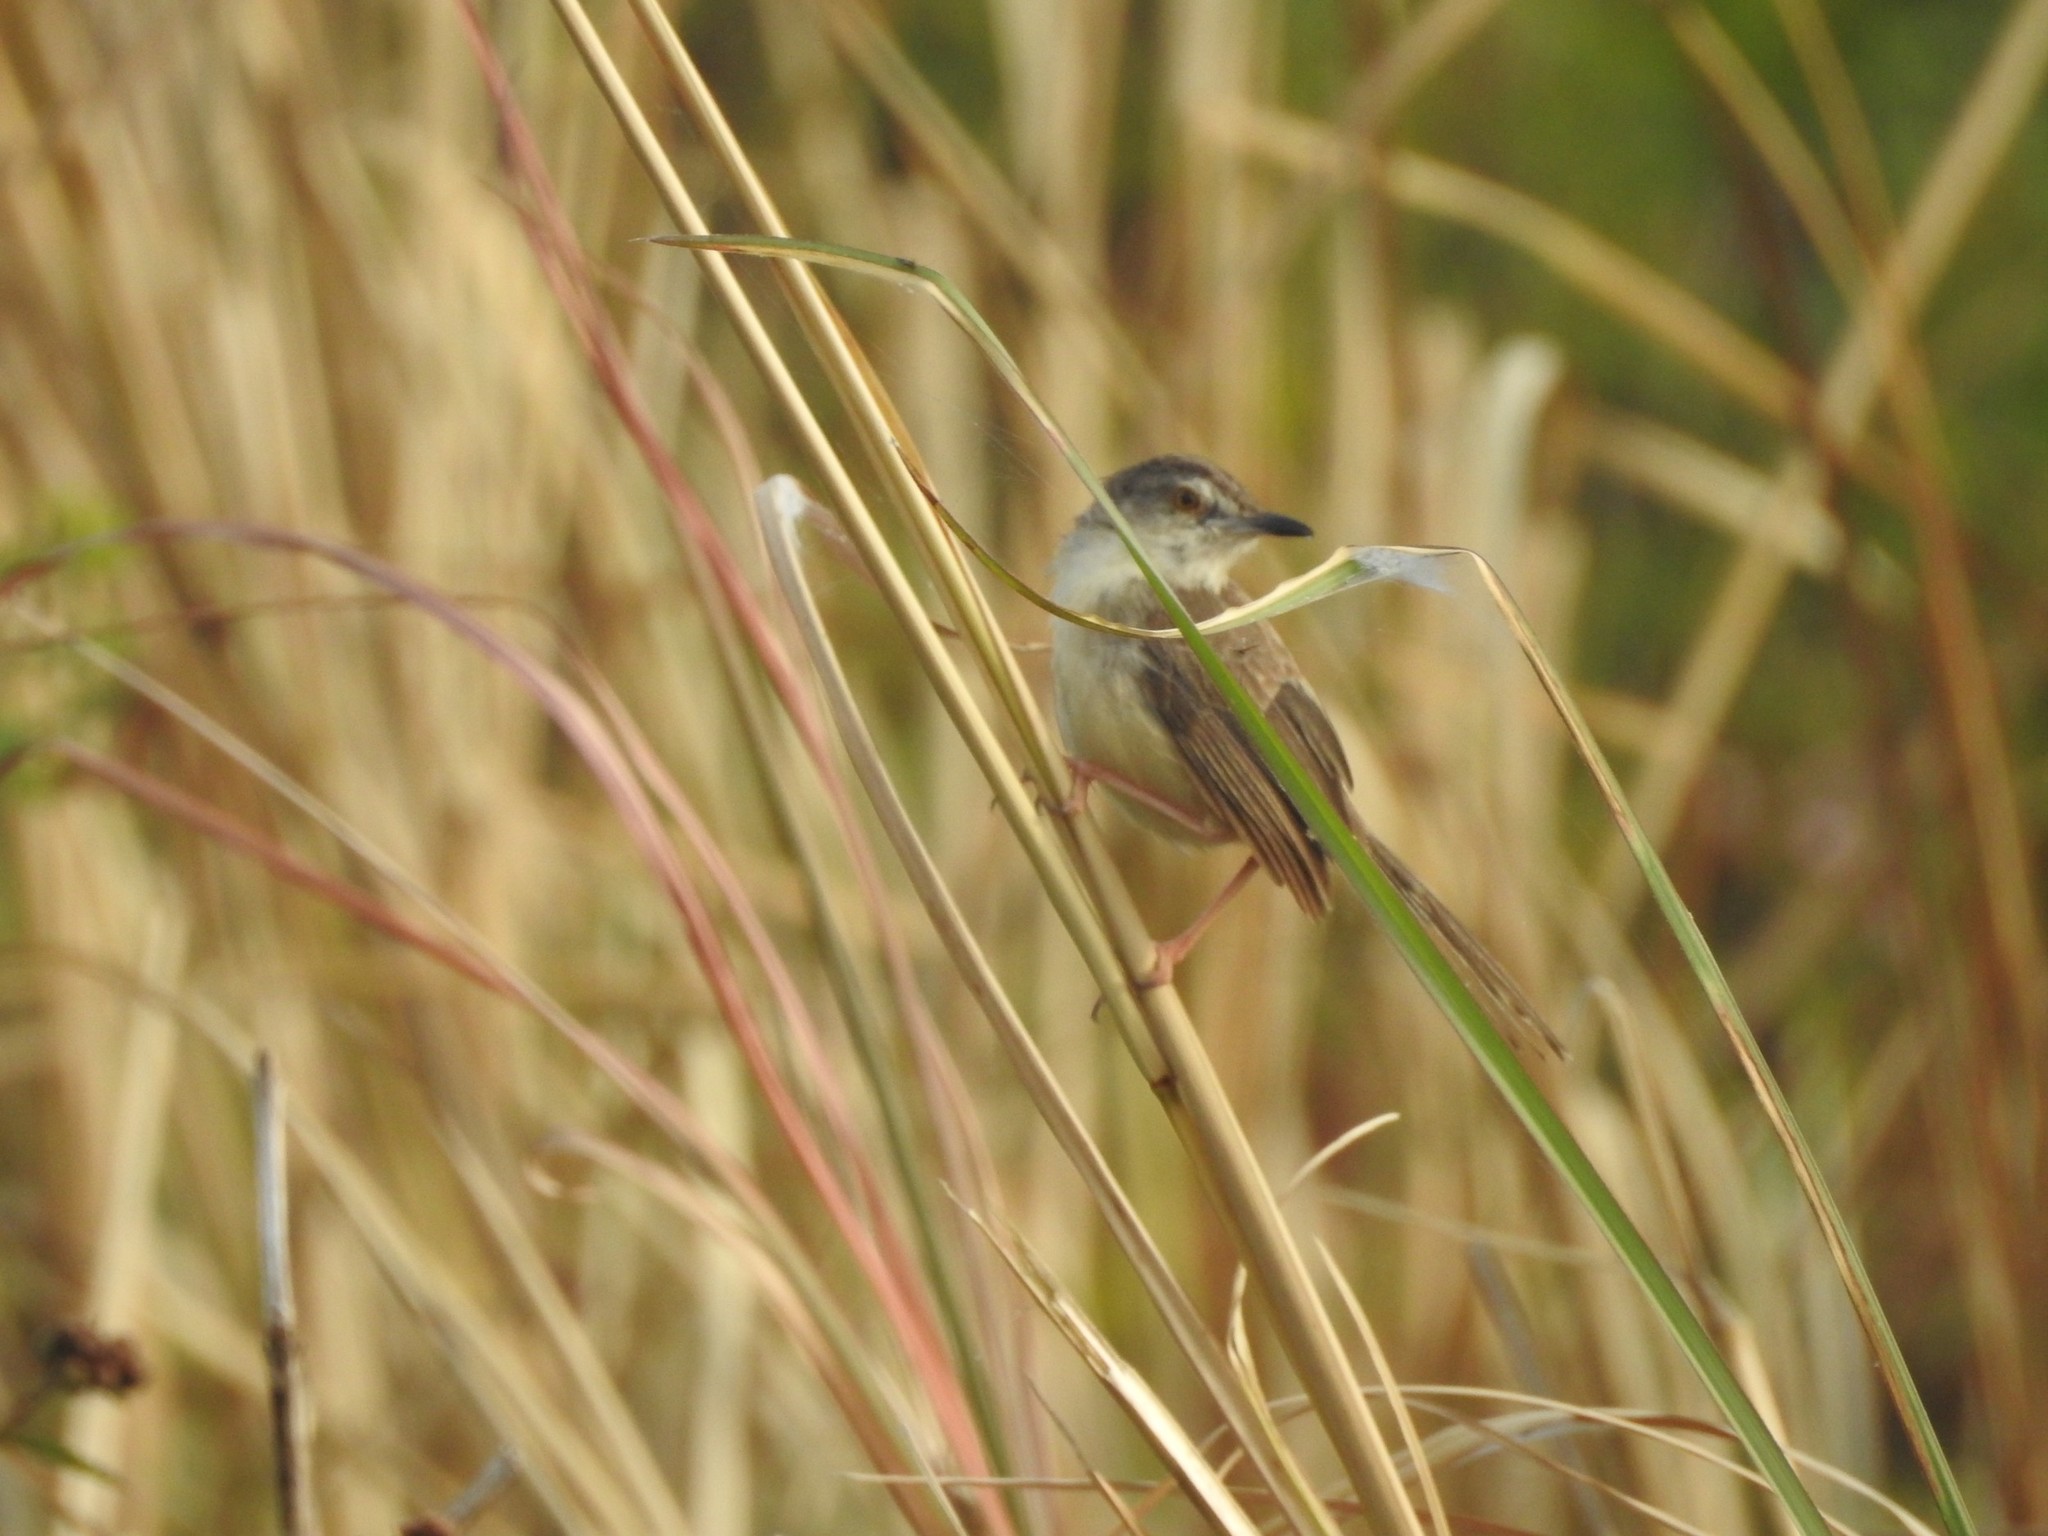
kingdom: Animalia
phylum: Chordata
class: Aves
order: Passeriformes
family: Cisticolidae
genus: Prinia
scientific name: Prinia inornata
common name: Plain prinia
